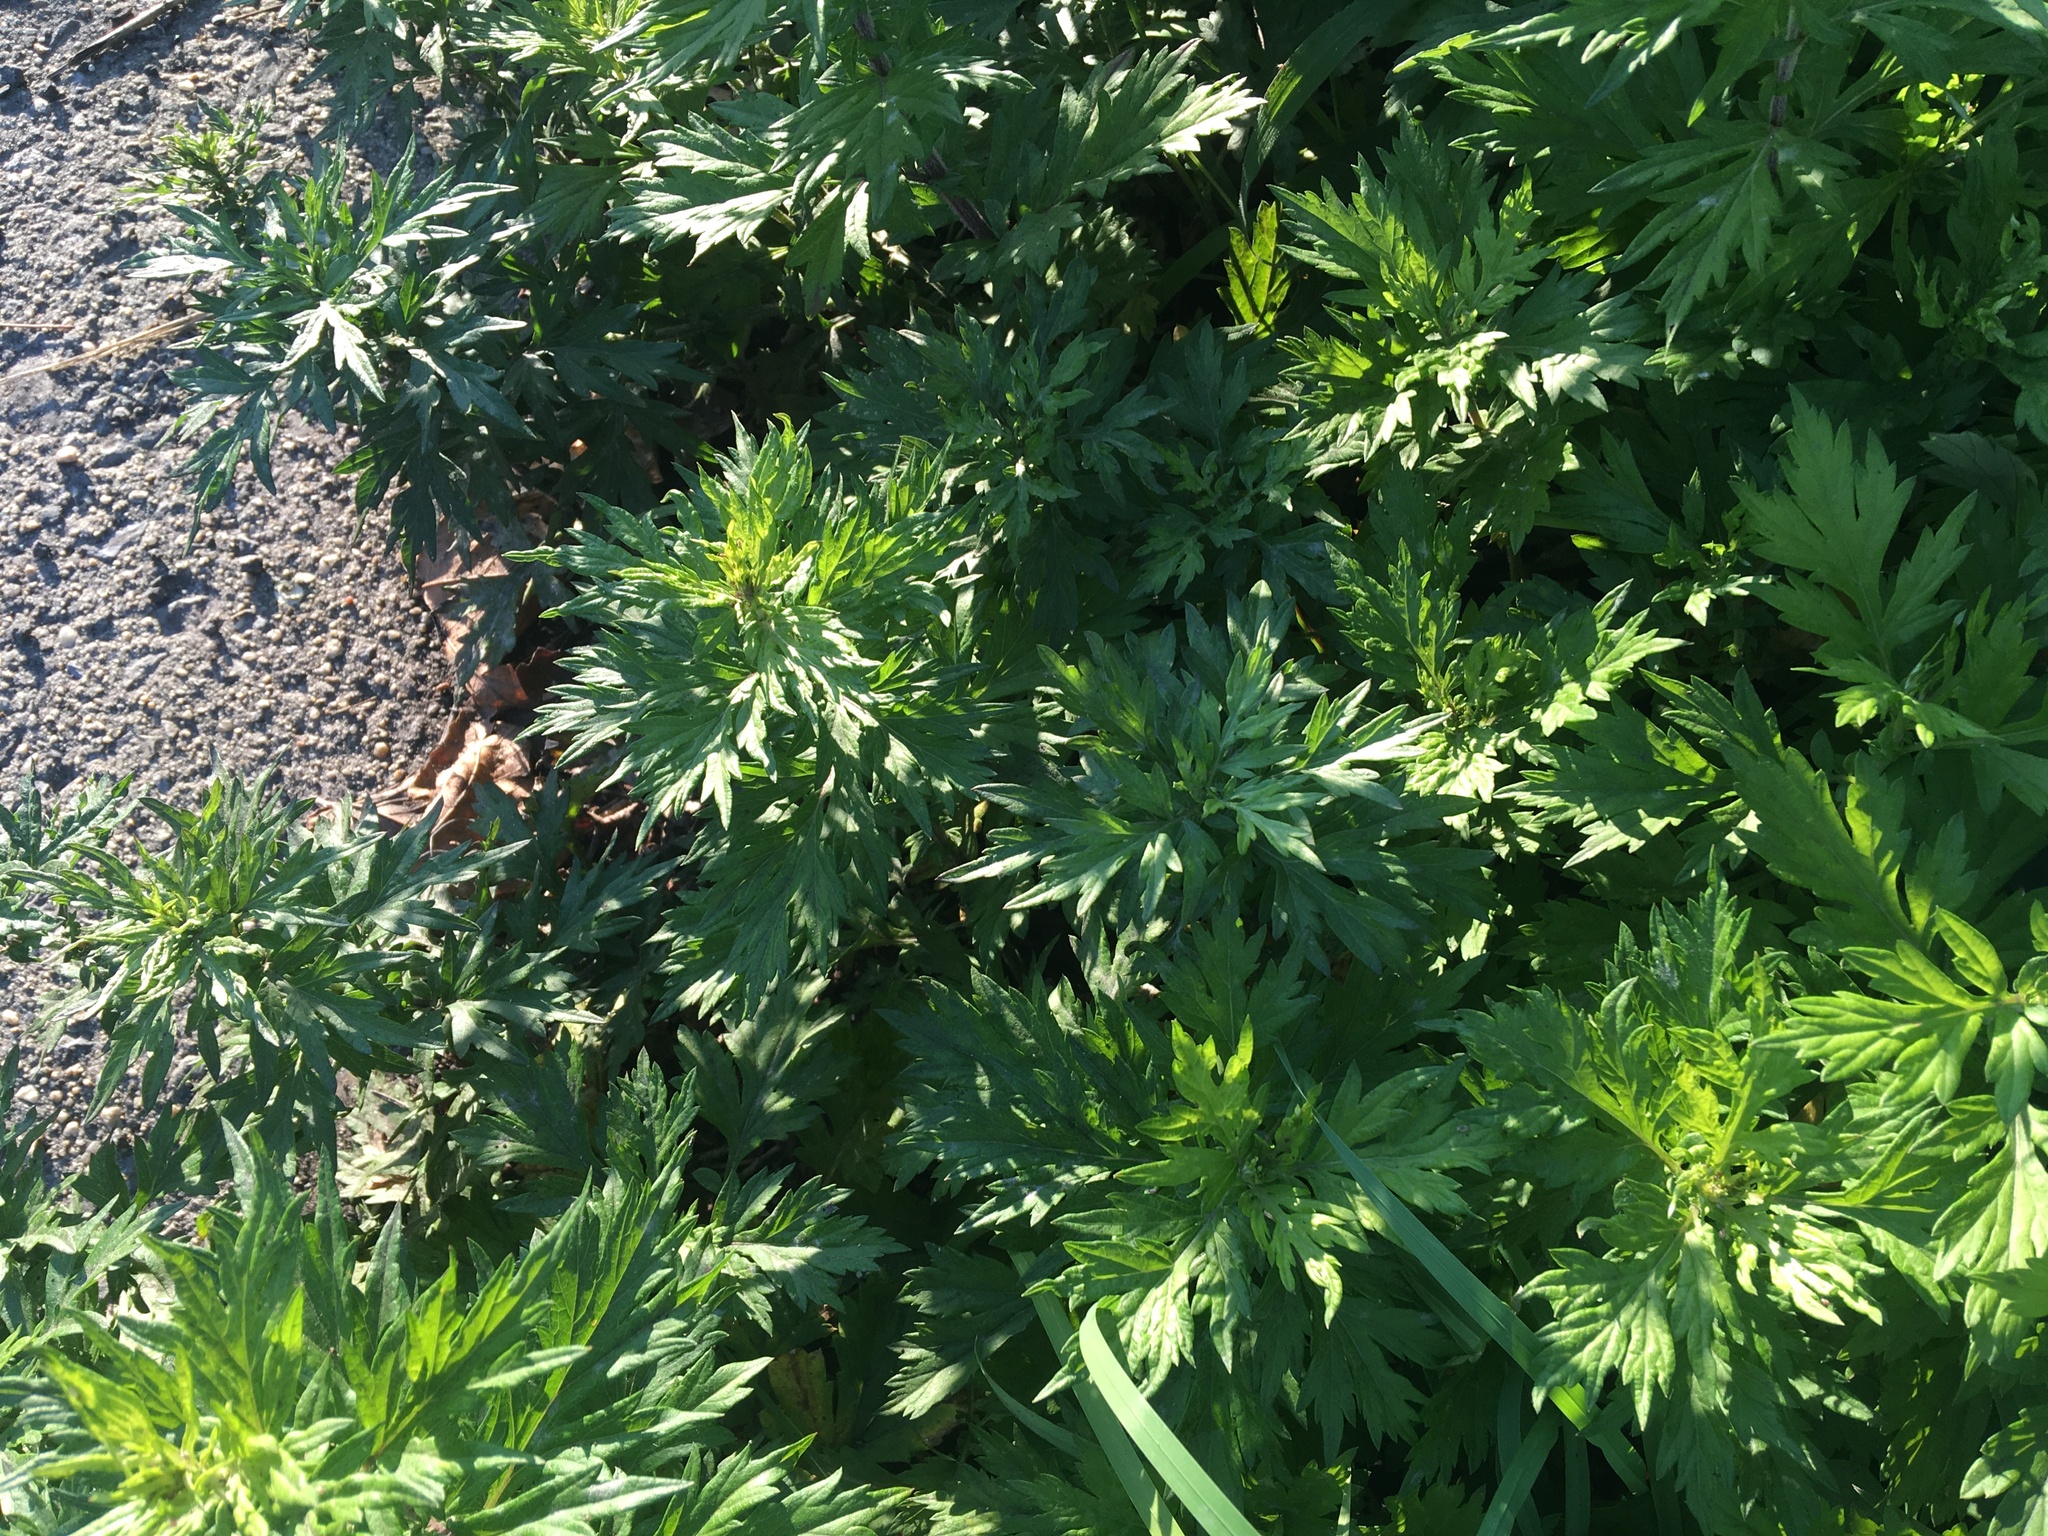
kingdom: Plantae
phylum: Tracheophyta
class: Magnoliopsida
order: Asterales
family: Asteraceae
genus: Artemisia
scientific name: Artemisia vulgaris
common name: Mugwort
